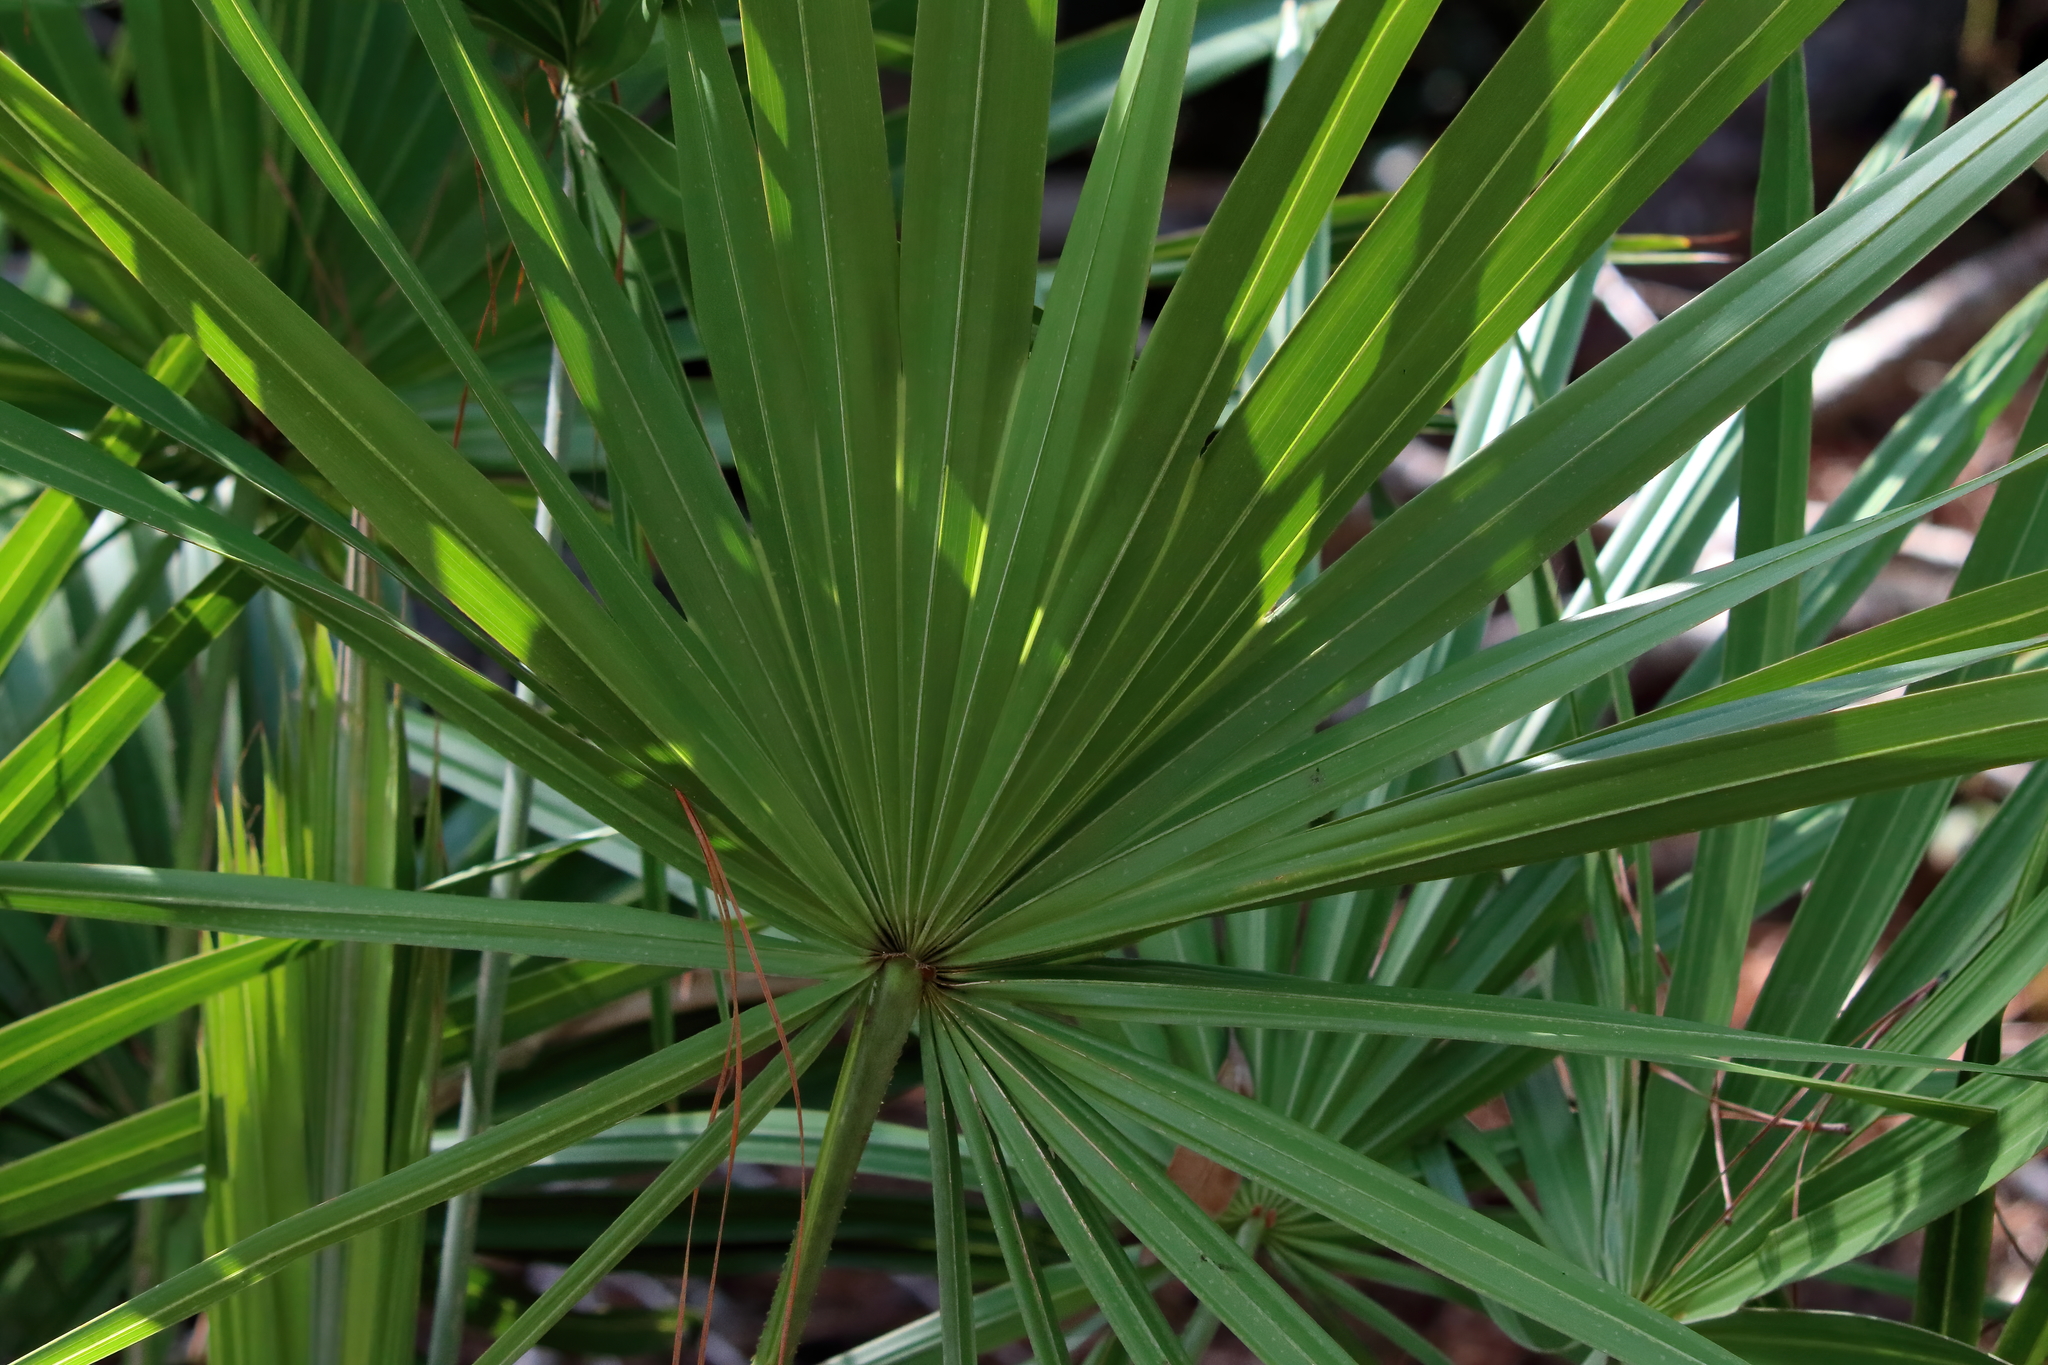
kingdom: Plantae
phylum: Tracheophyta
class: Liliopsida
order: Arecales
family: Arecaceae
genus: Serenoa
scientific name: Serenoa repens
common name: Saw-palmetto
